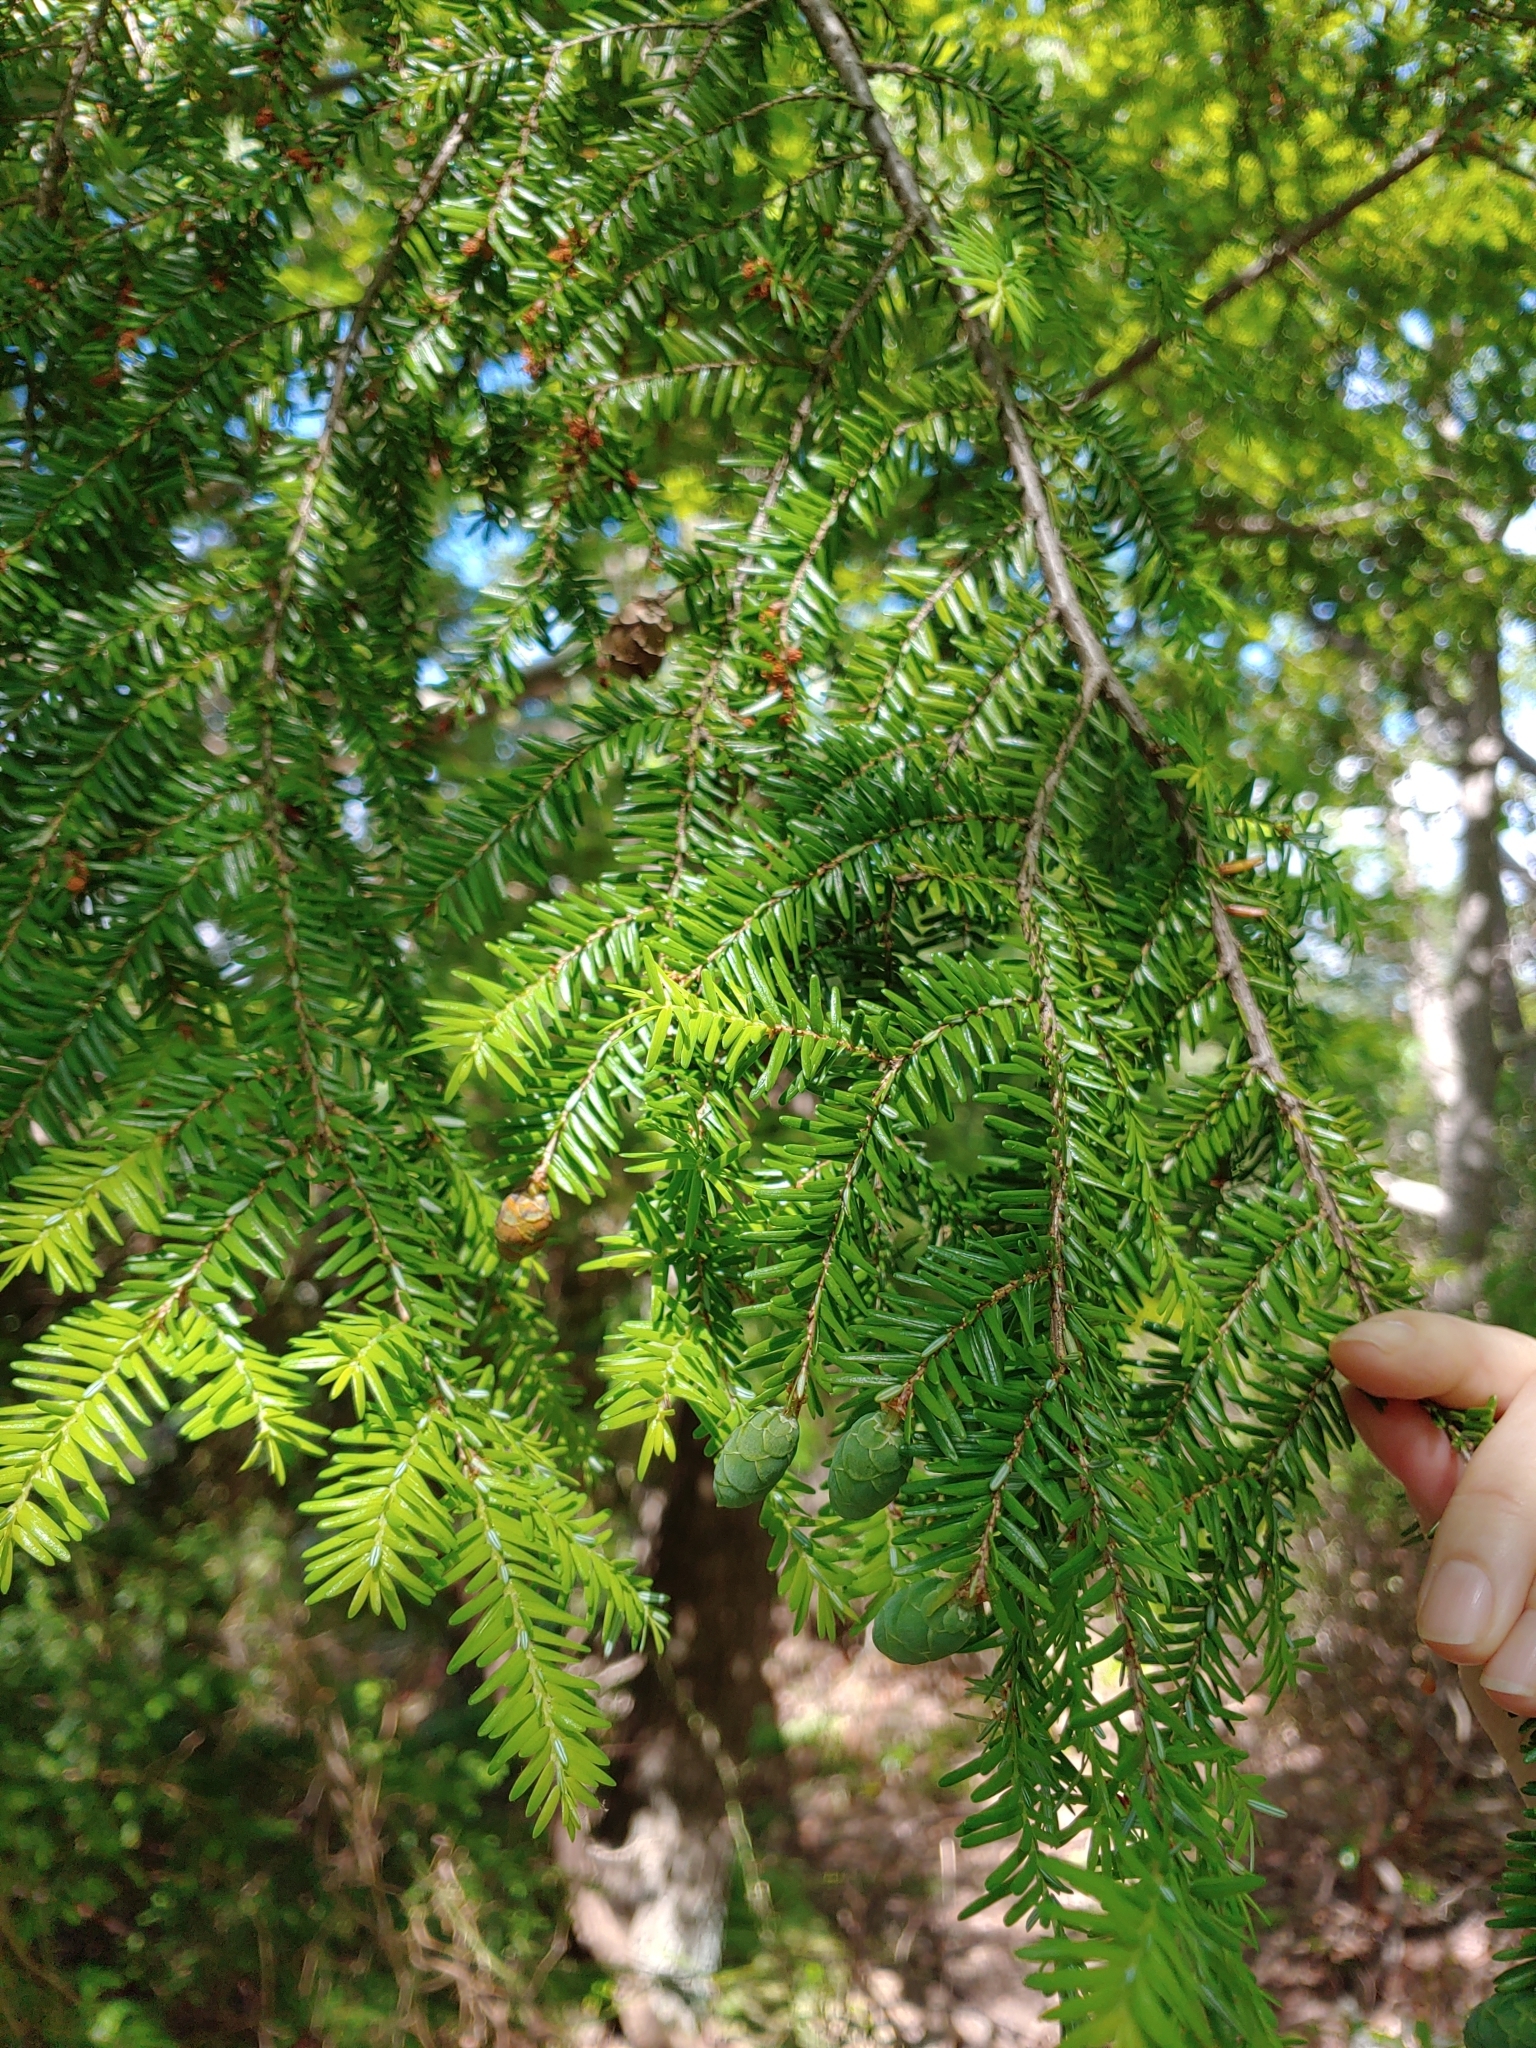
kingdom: Plantae
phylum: Tracheophyta
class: Pinopsida
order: Pinales
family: Pinaceae
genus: Tsuga
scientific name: Tsuga canadensis
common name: Eastern hemlock
